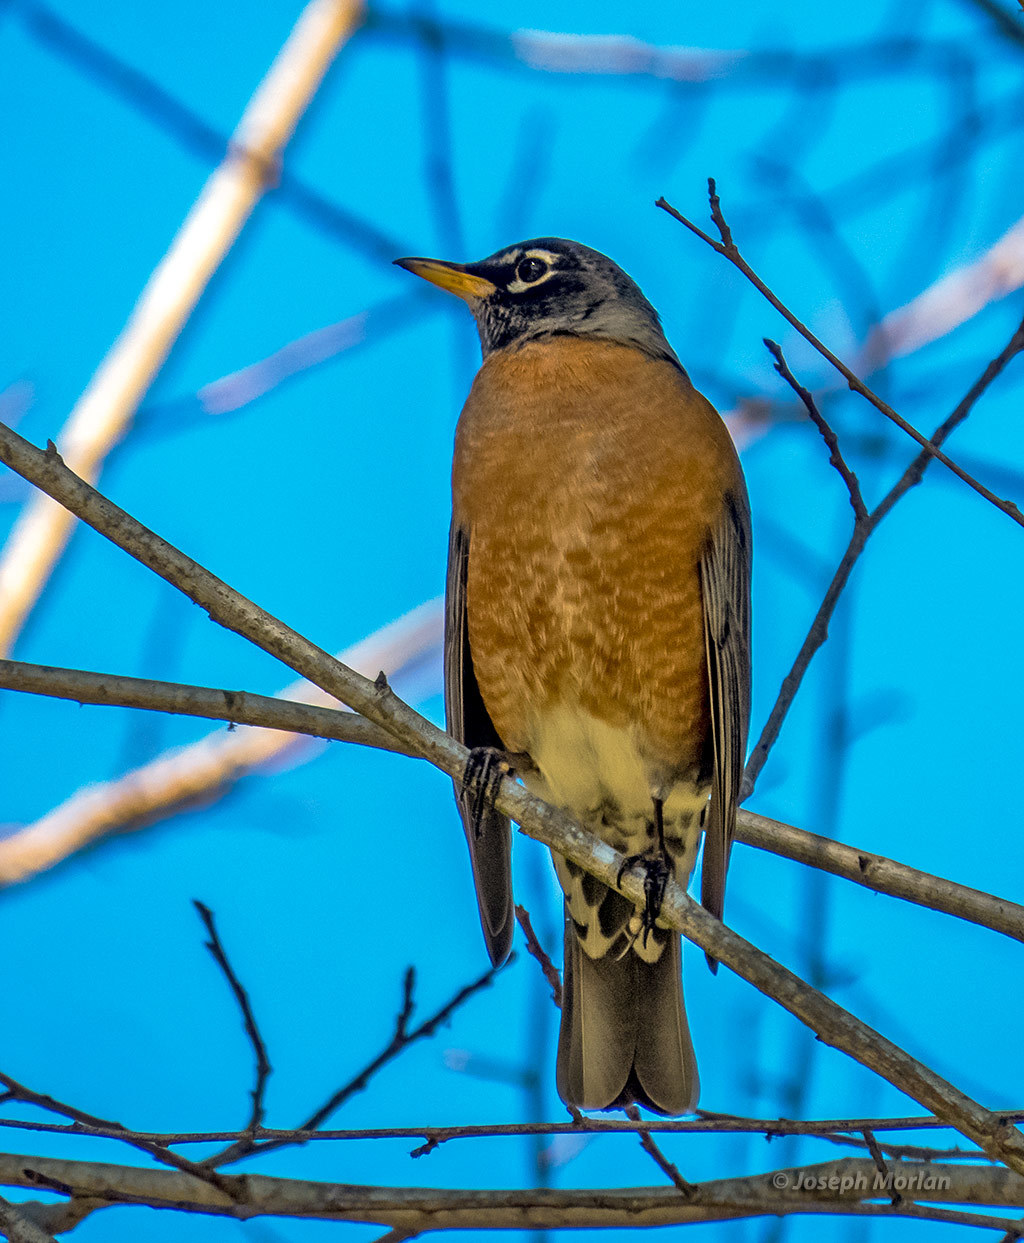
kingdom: Animalia
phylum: Chordata
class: Aves
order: Passeriformes
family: Turdidae
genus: Turdus
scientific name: Turdus migratorius
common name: American robin
